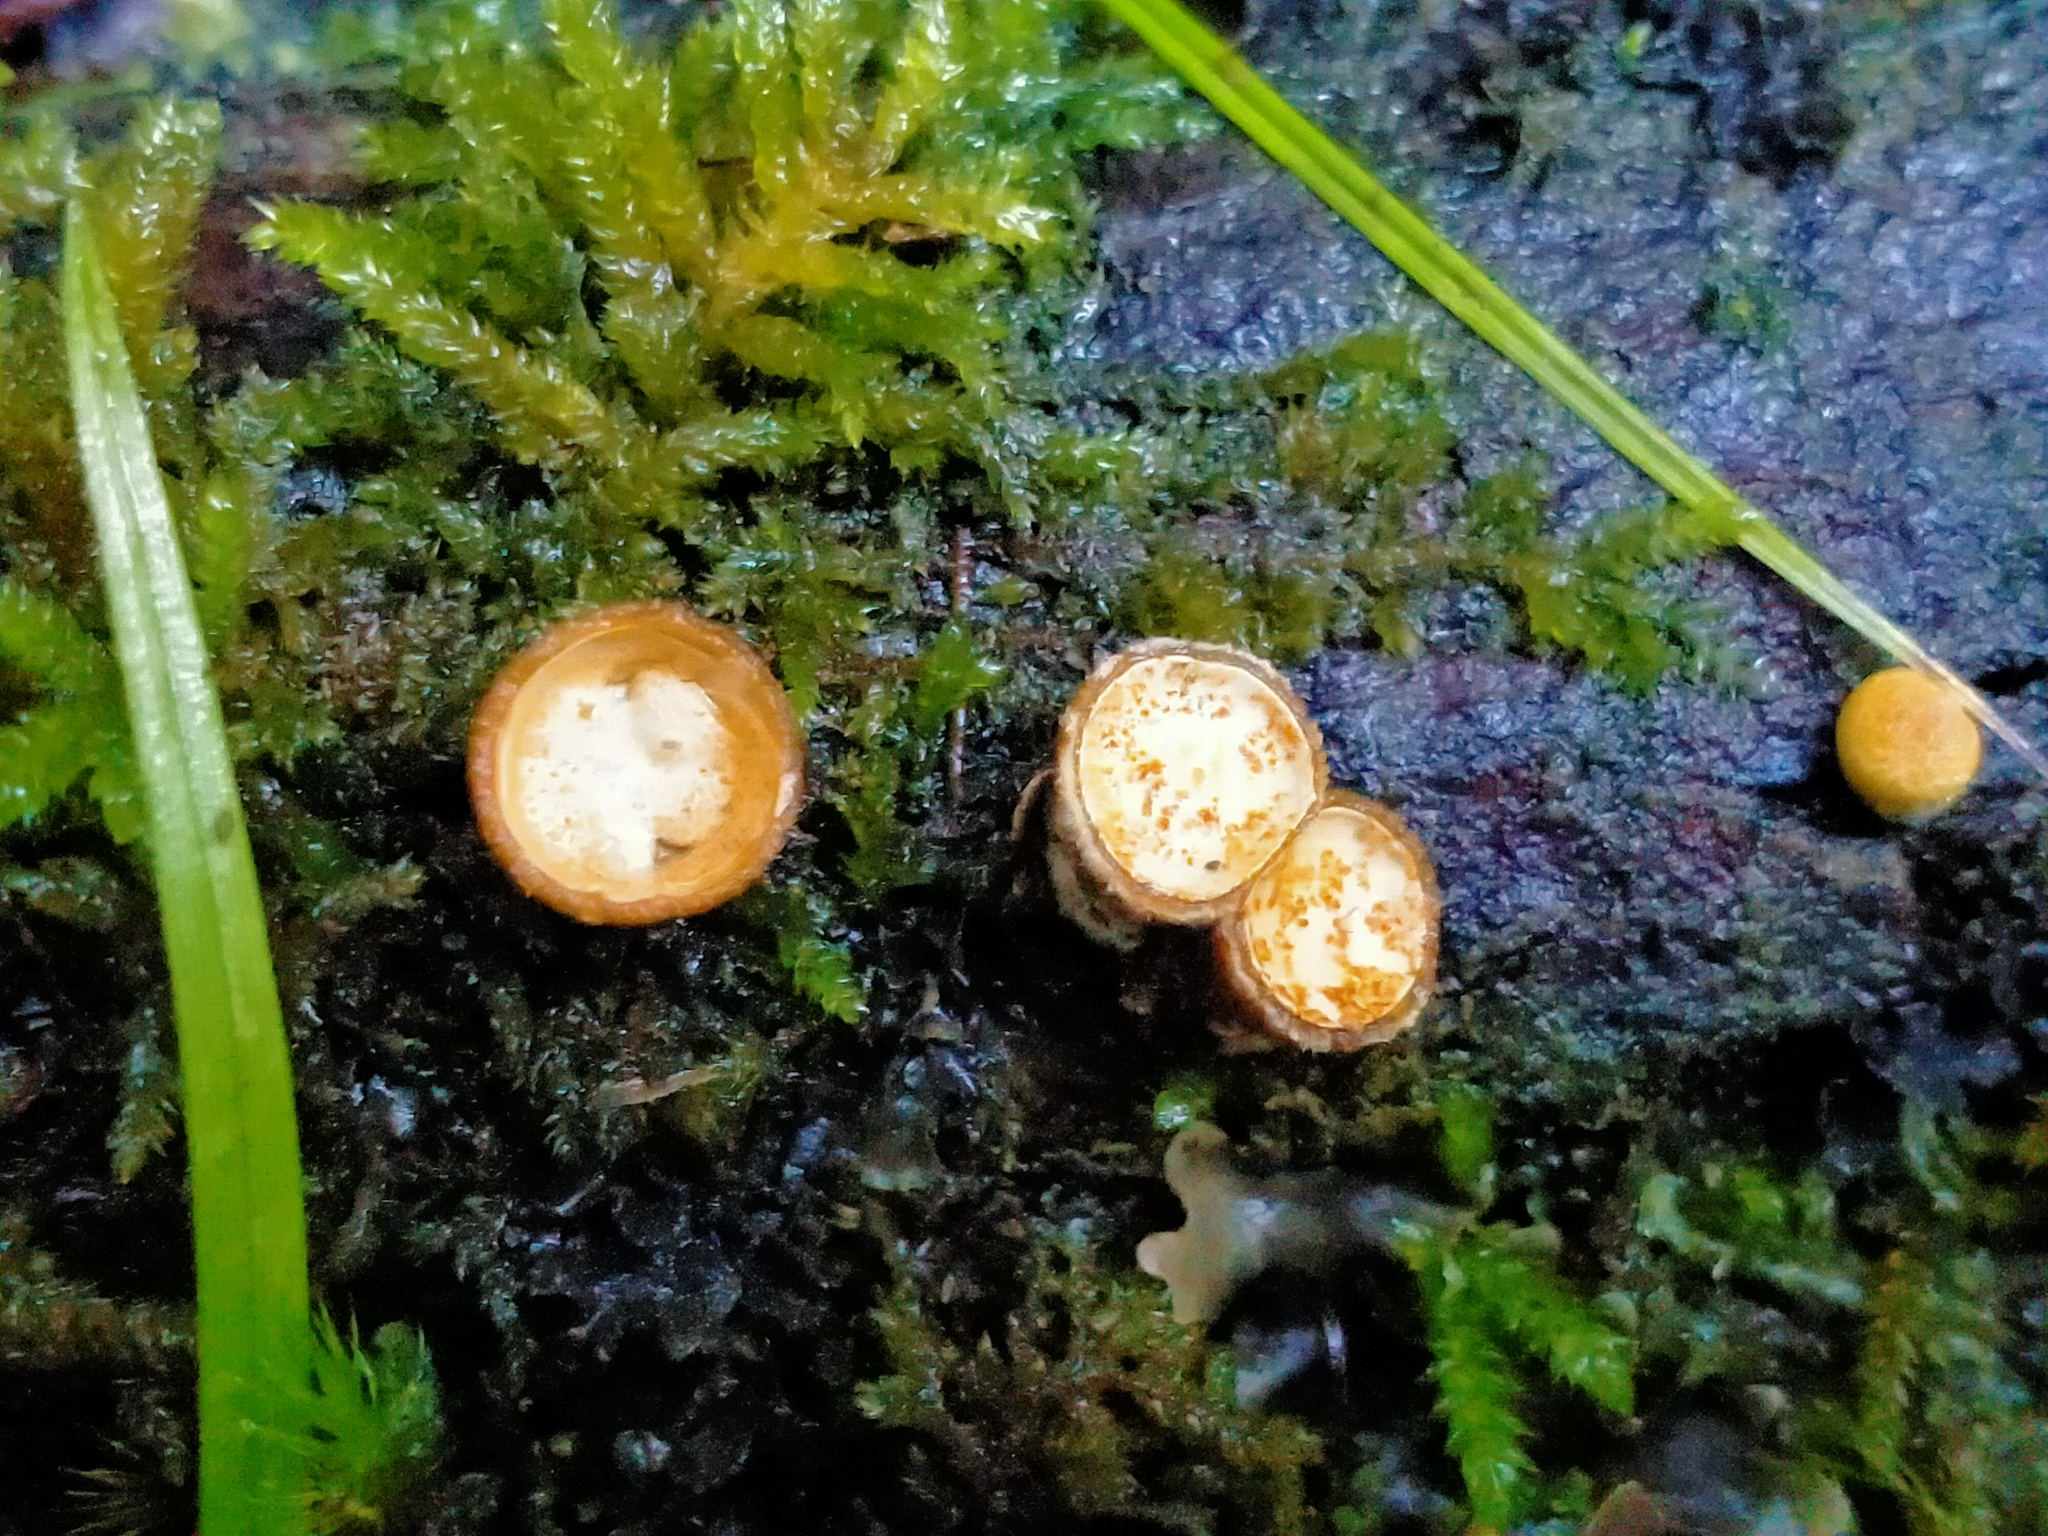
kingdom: Fungi
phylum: Basidiomycota
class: Agaricomycetes
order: Agaricales
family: Nidulariaceae
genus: Crucibulum
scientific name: Crucibulum simile
